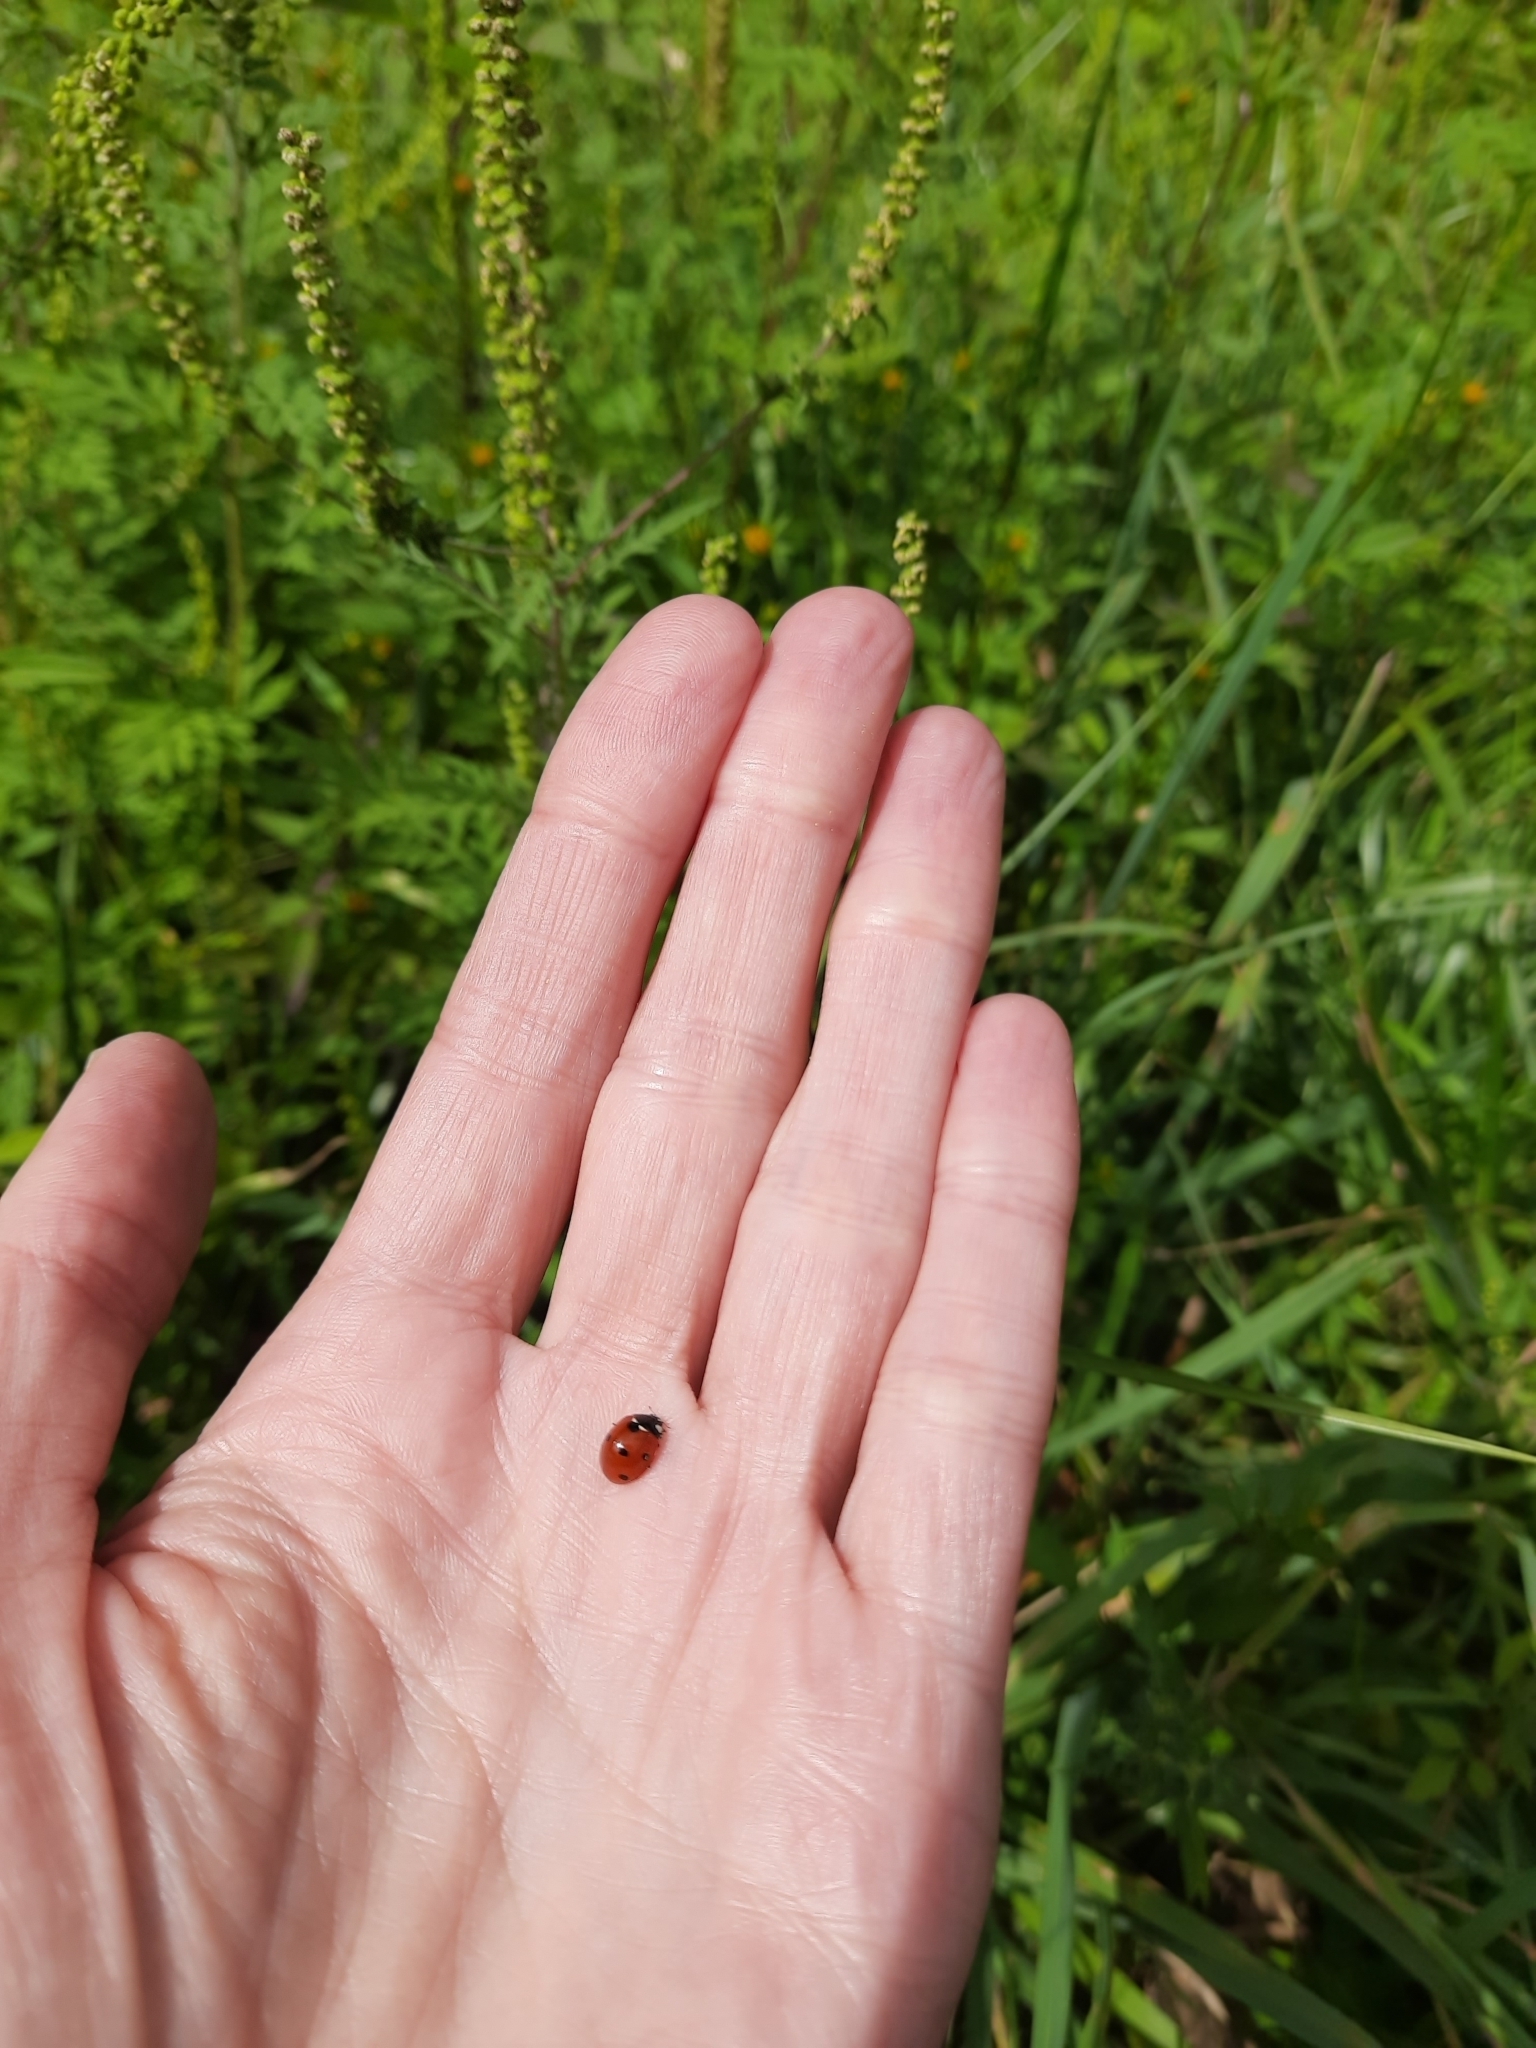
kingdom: Animalia
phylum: Arthropoda
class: Insecta
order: Coleoptera
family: Coccinellidae
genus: Coccinella
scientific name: Coccinella septempunctata
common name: Sevenspotted lady beetle
